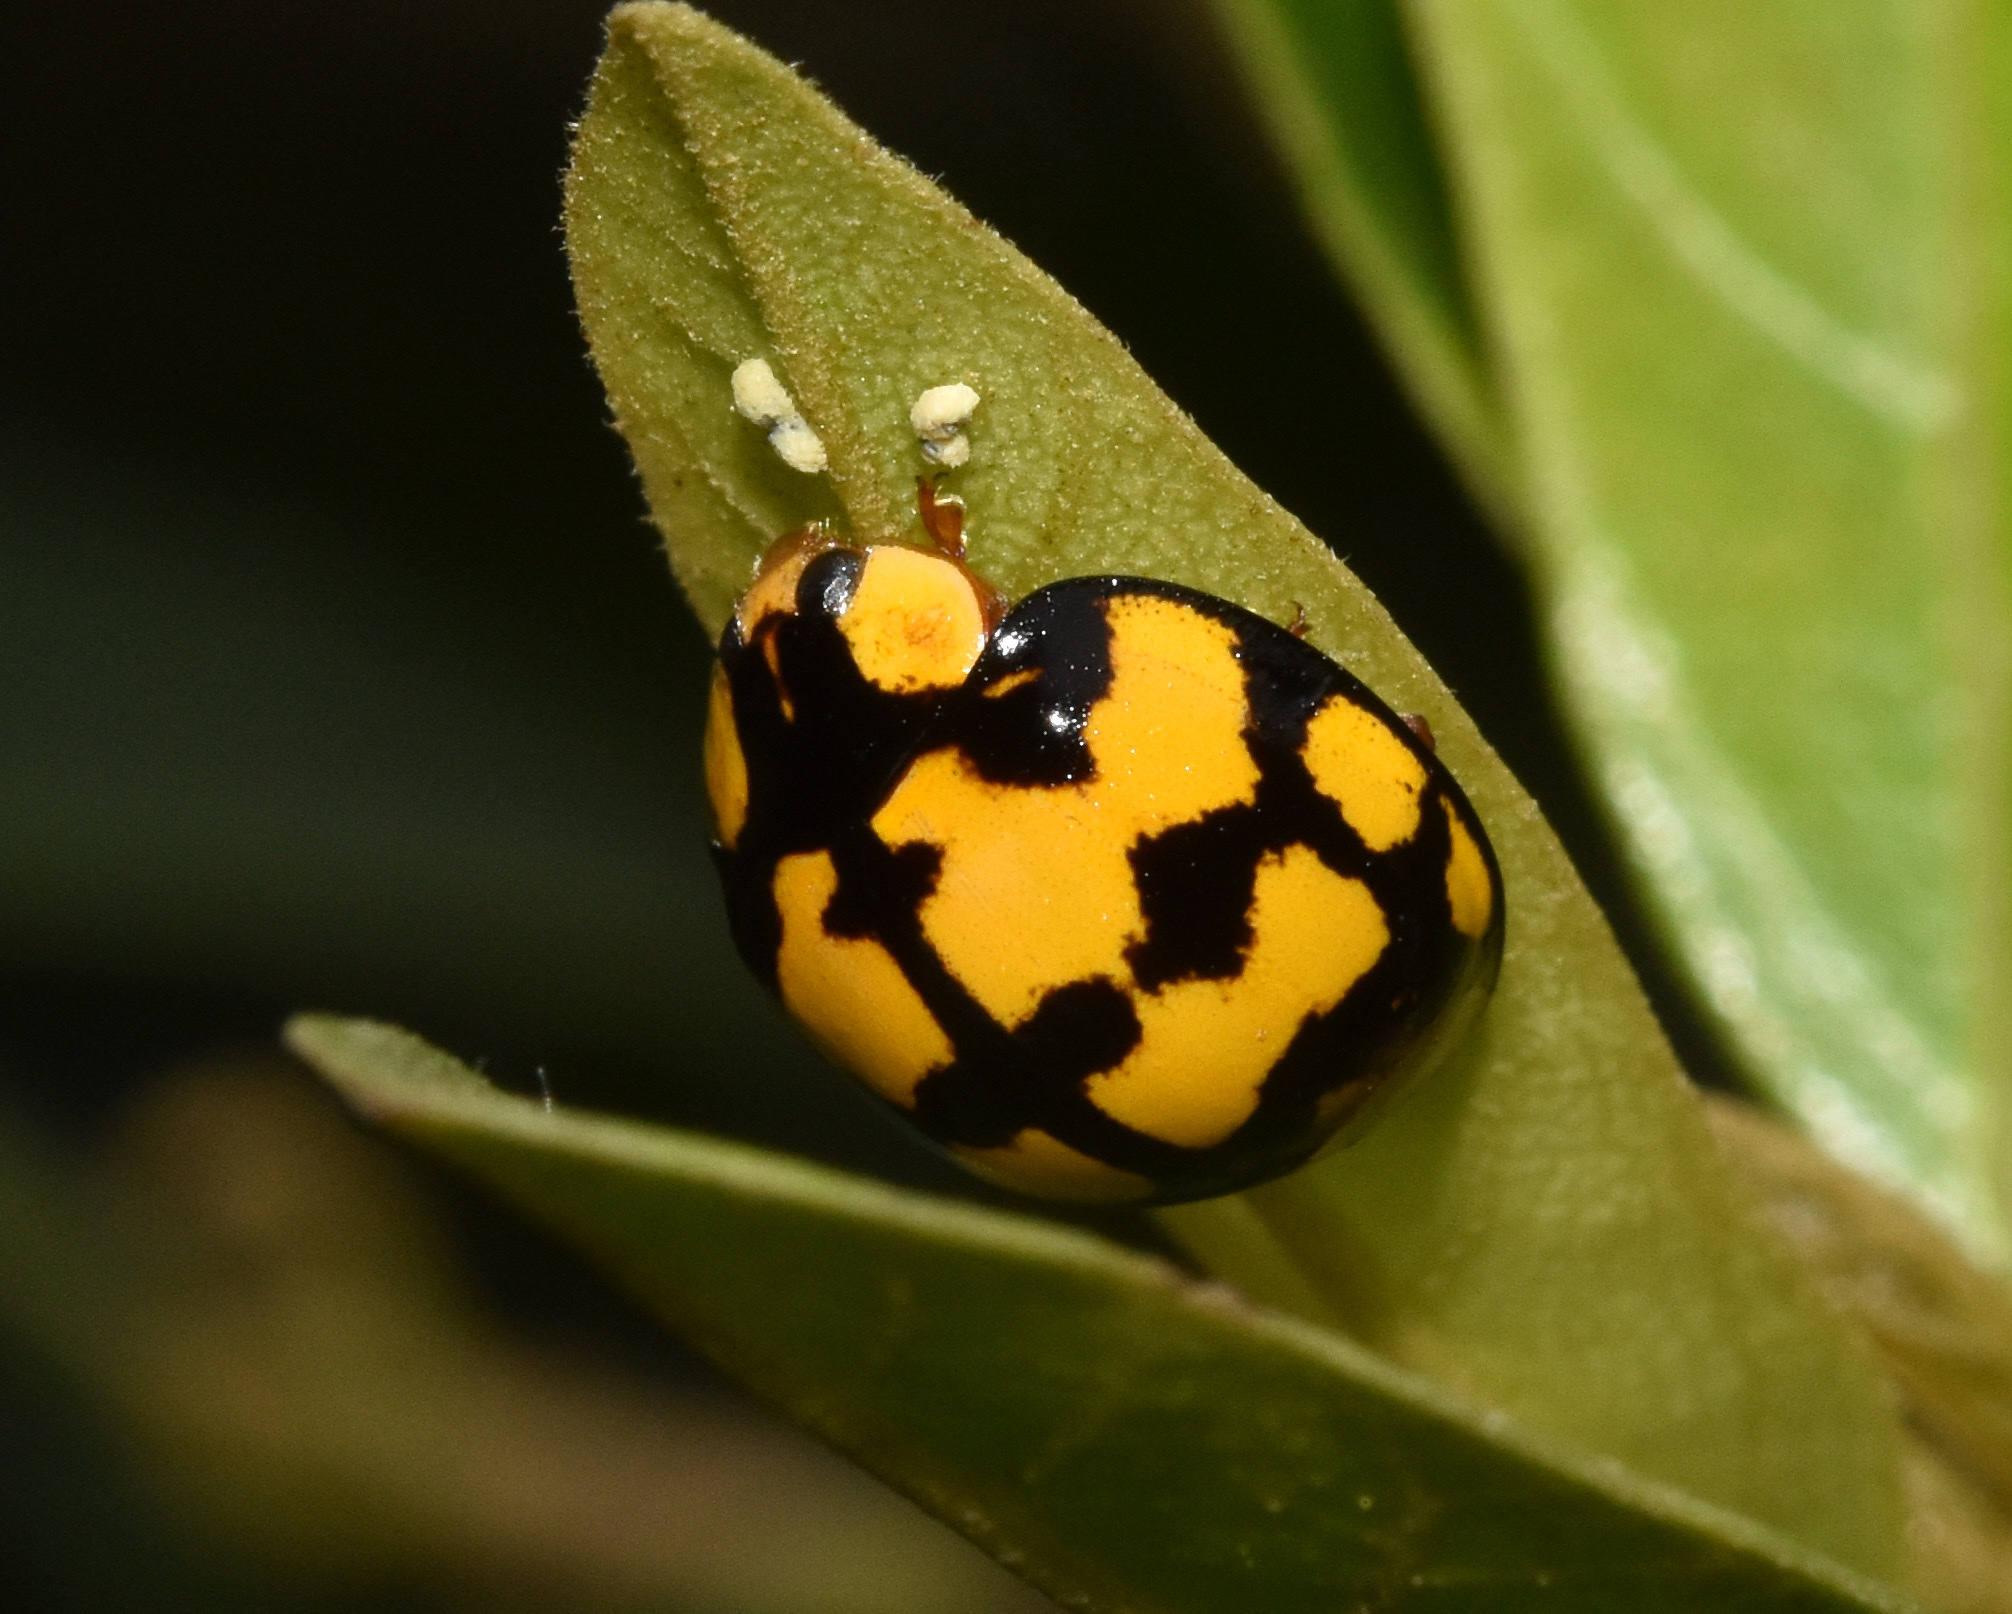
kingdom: Animalia
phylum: Arthropoda
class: Insecta
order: Coleoptera
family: Coccinellidae
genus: Harmonia
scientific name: Harmonia
